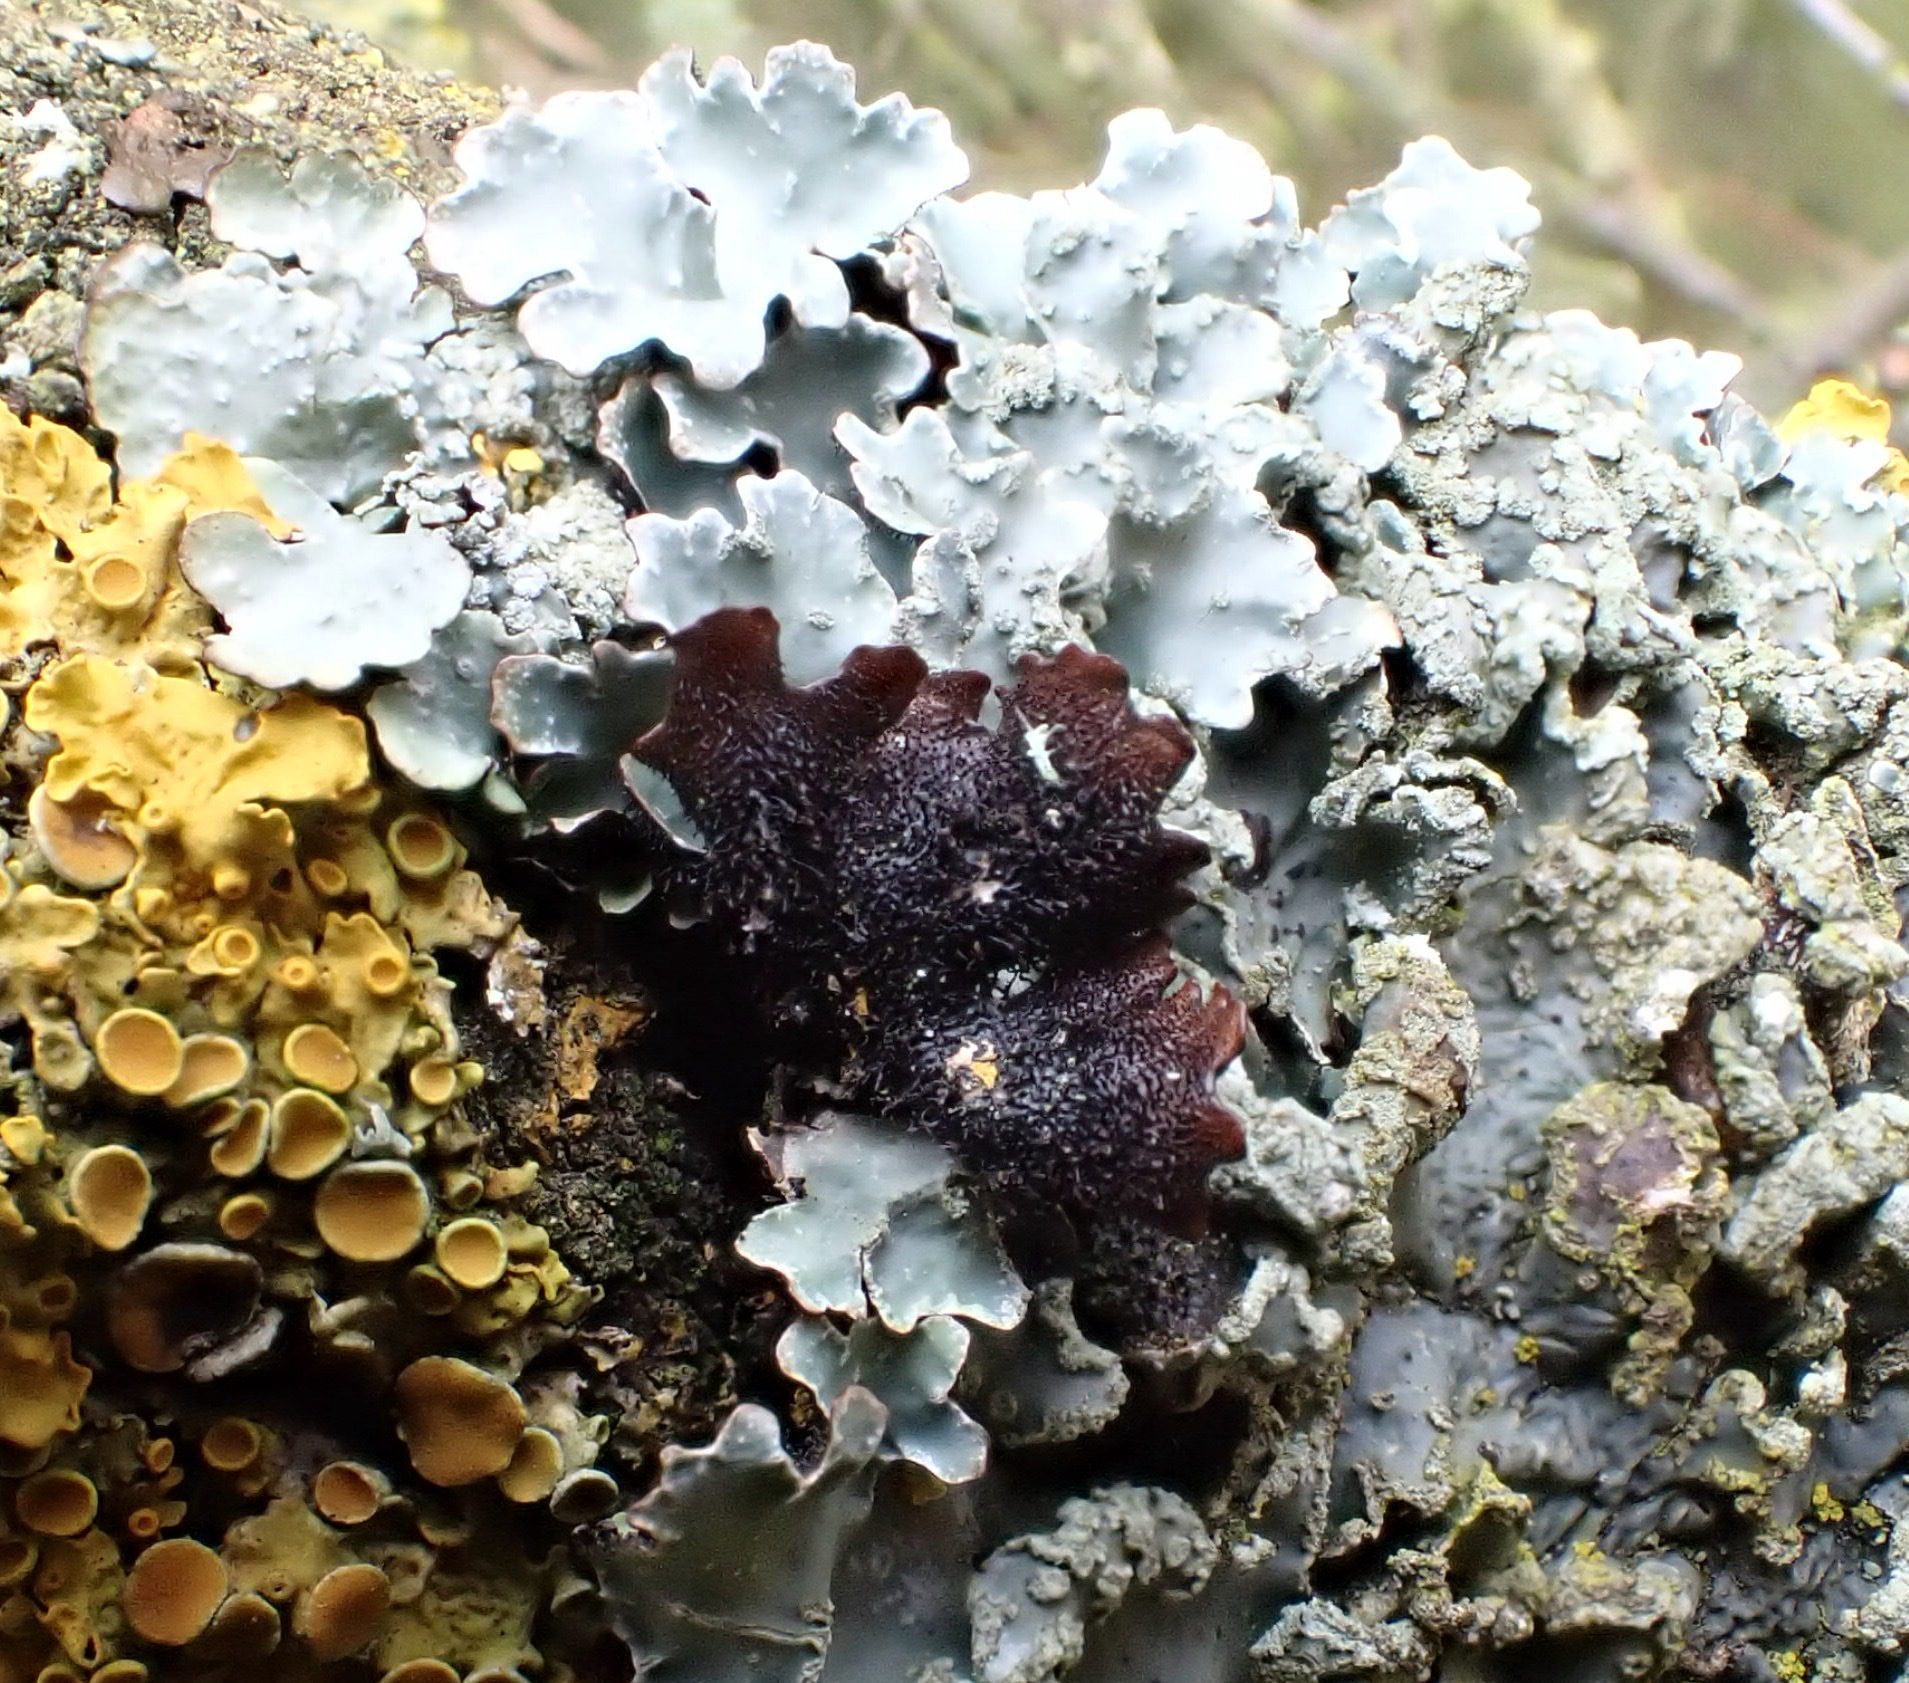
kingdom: Fungi
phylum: Ascomycota
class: Lecanoromycetes
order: Lecanorales
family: Parmeliaceae
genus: Parmelia
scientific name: Parmelia sulcata
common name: Netted shield lichen
